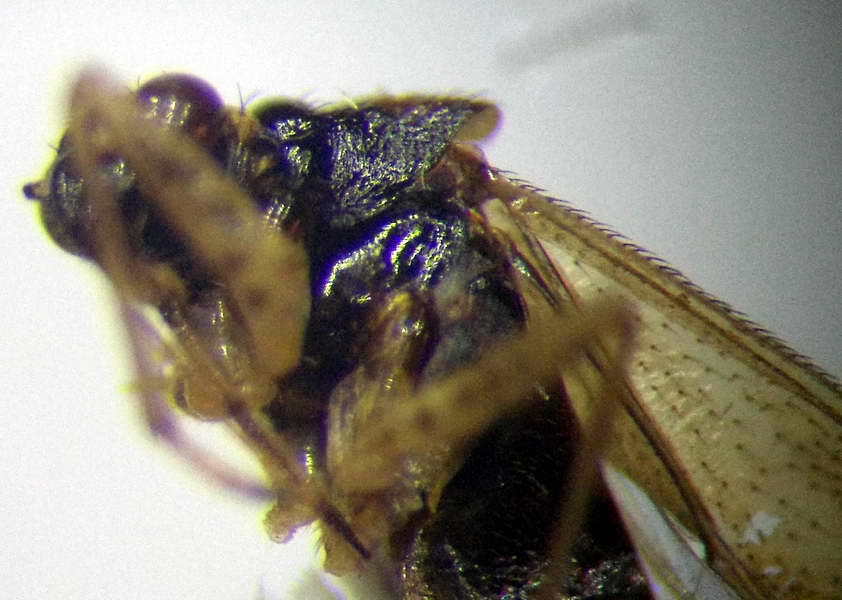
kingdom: Animalia
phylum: Arthropoda
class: Insecta
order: Hemiptera
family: Miridae
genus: Dicyphus
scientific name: Dicyphus globulifer
